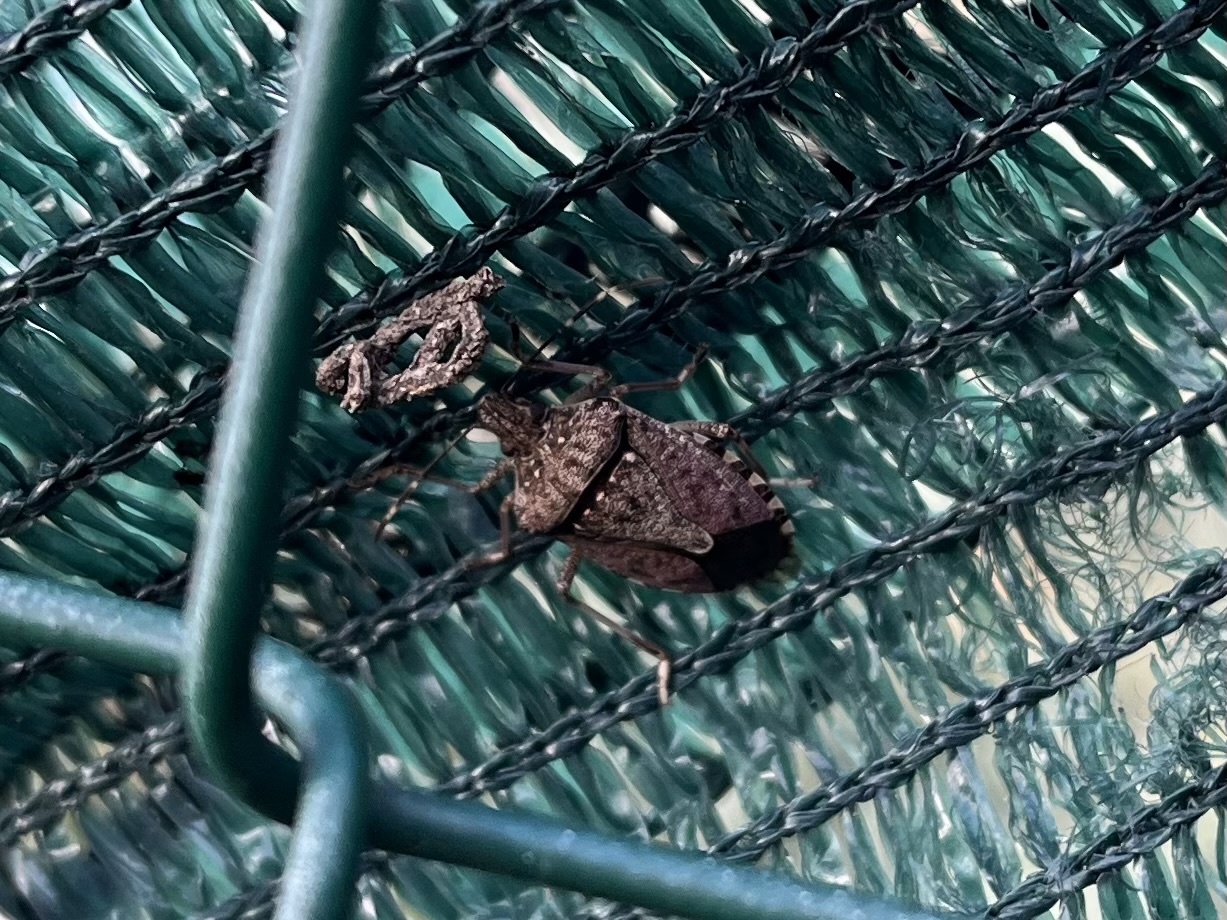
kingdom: Animalia
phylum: Arthropoda
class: Insecta
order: Hemiptera
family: Pentatomidae
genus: Halyomorpha
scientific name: Halyomorpha halys
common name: Brown marmorated stink bug
